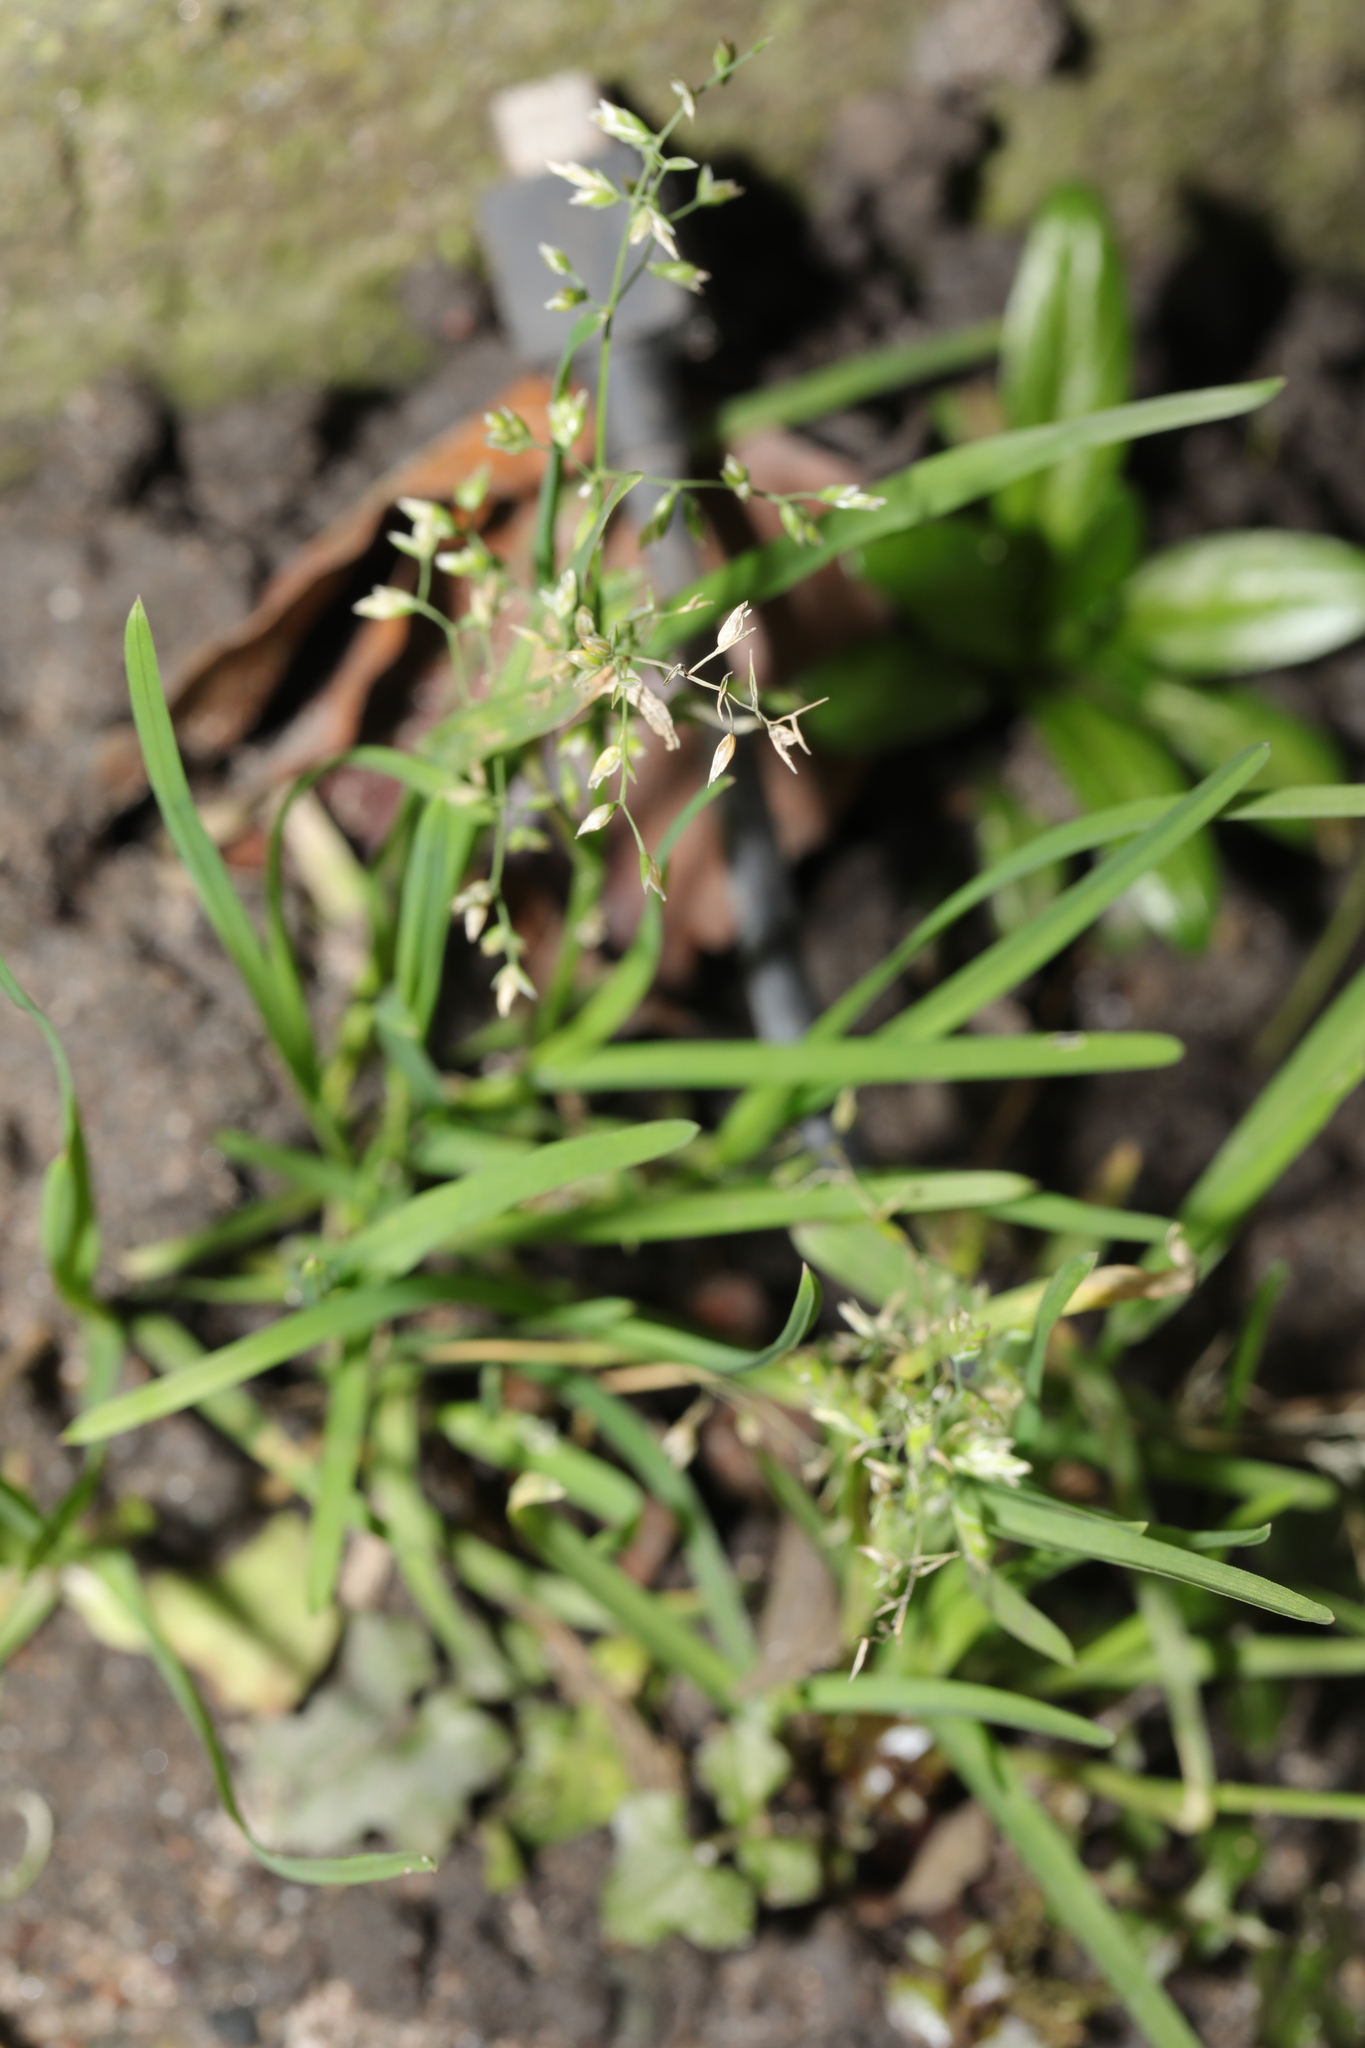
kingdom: Plantae
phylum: Tracheophyta
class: Liliopsida
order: Poales
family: Poaceae
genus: Poa
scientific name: Poa annua
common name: Annual bluegrass
